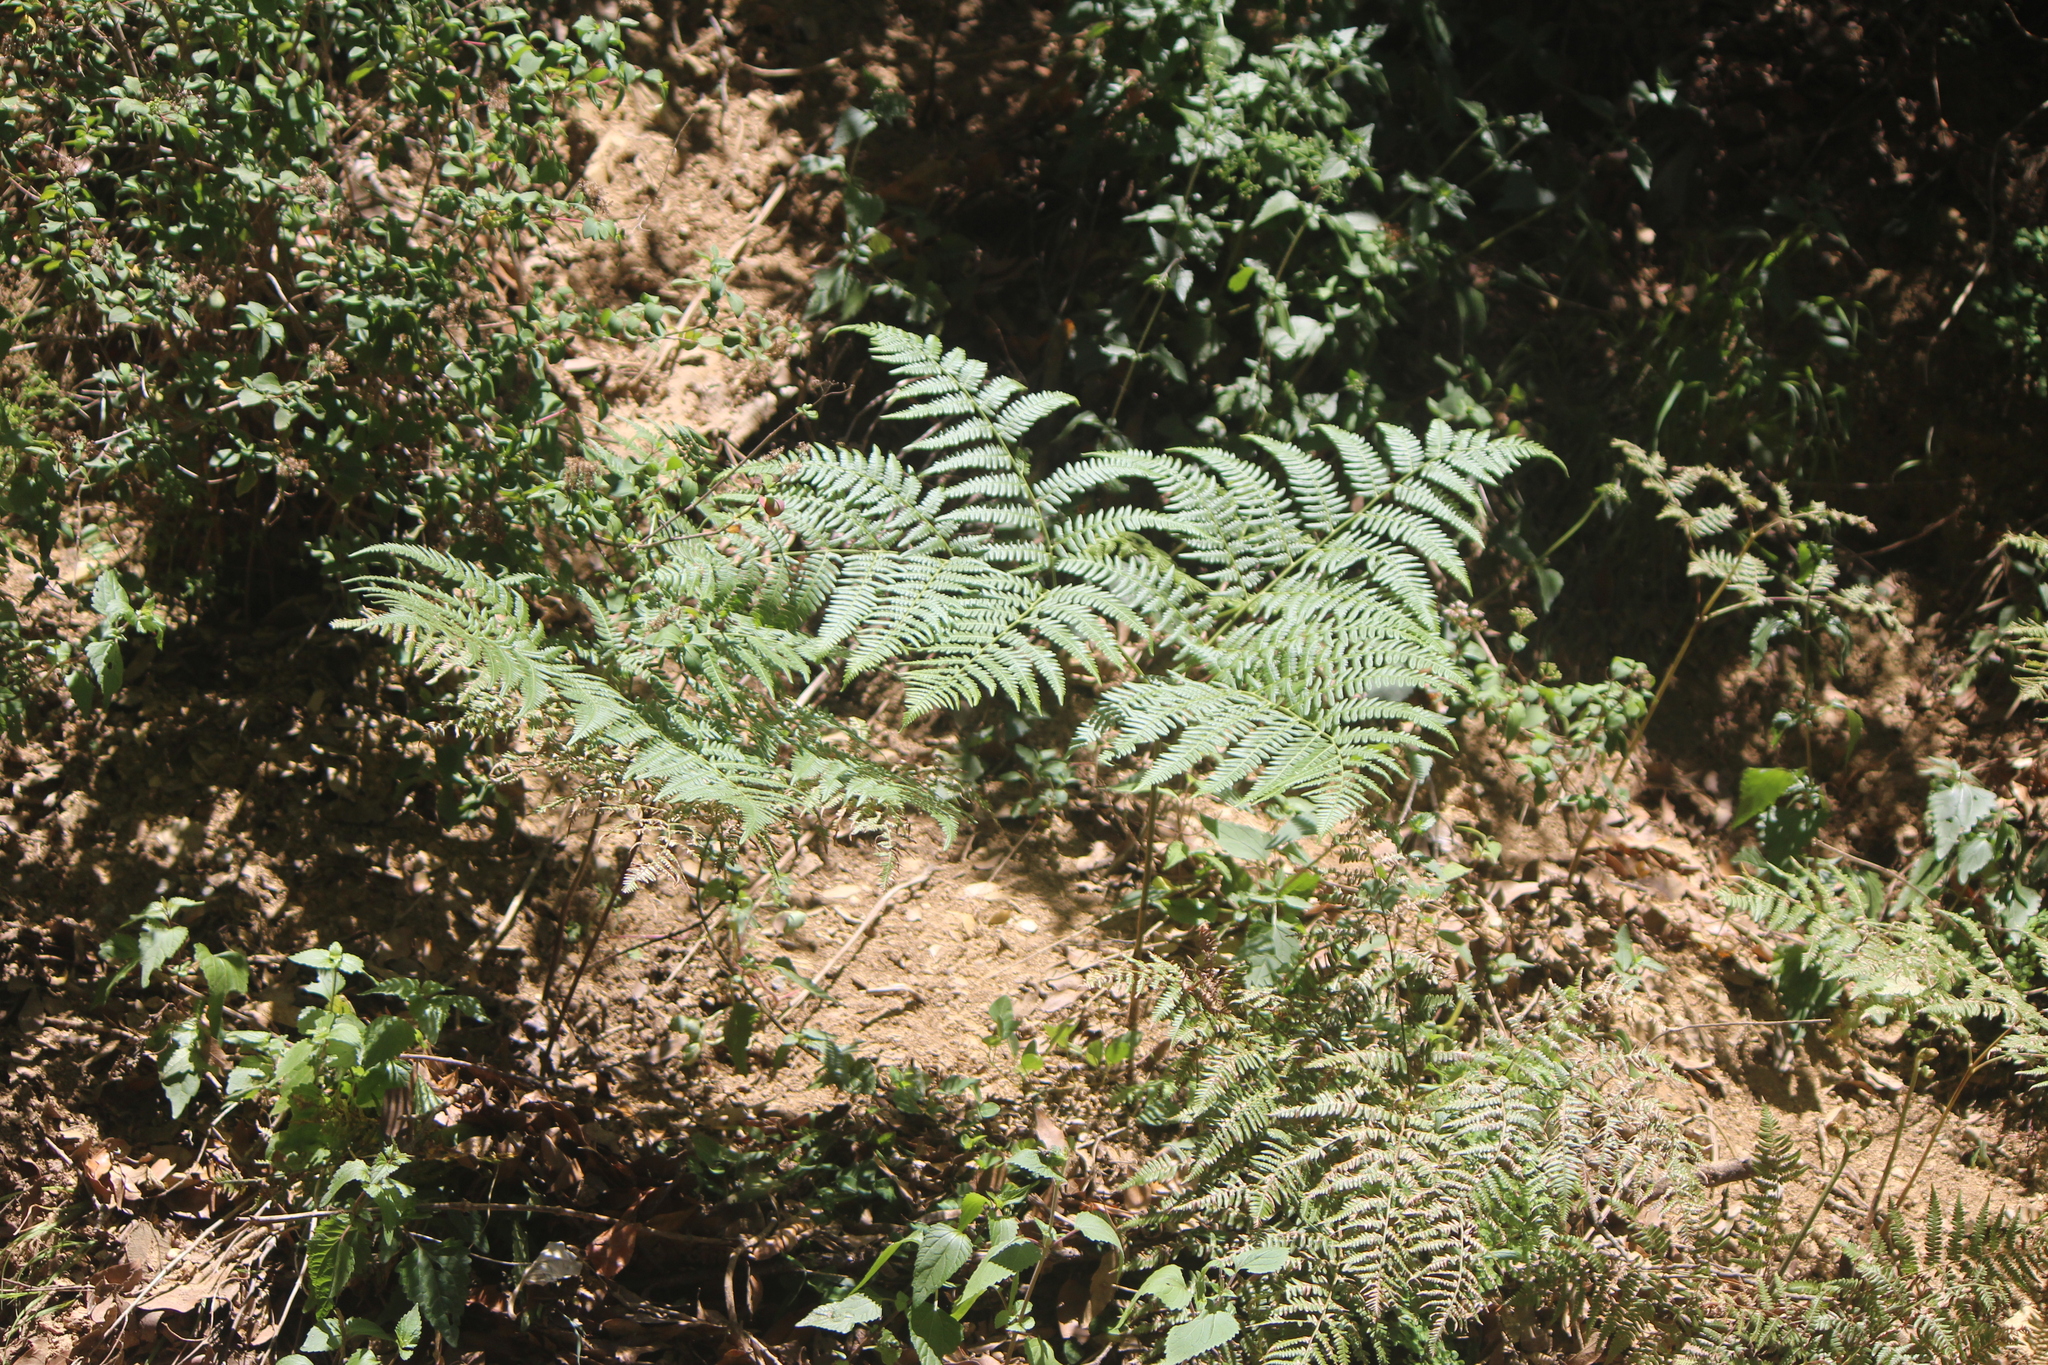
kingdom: Plantae
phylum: Tracheophyta
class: Polypodiopsida
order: Polypodiales
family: Dennstaedtiaceae
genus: Pteridium
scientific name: Pteridium aquilinum
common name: Bracken
